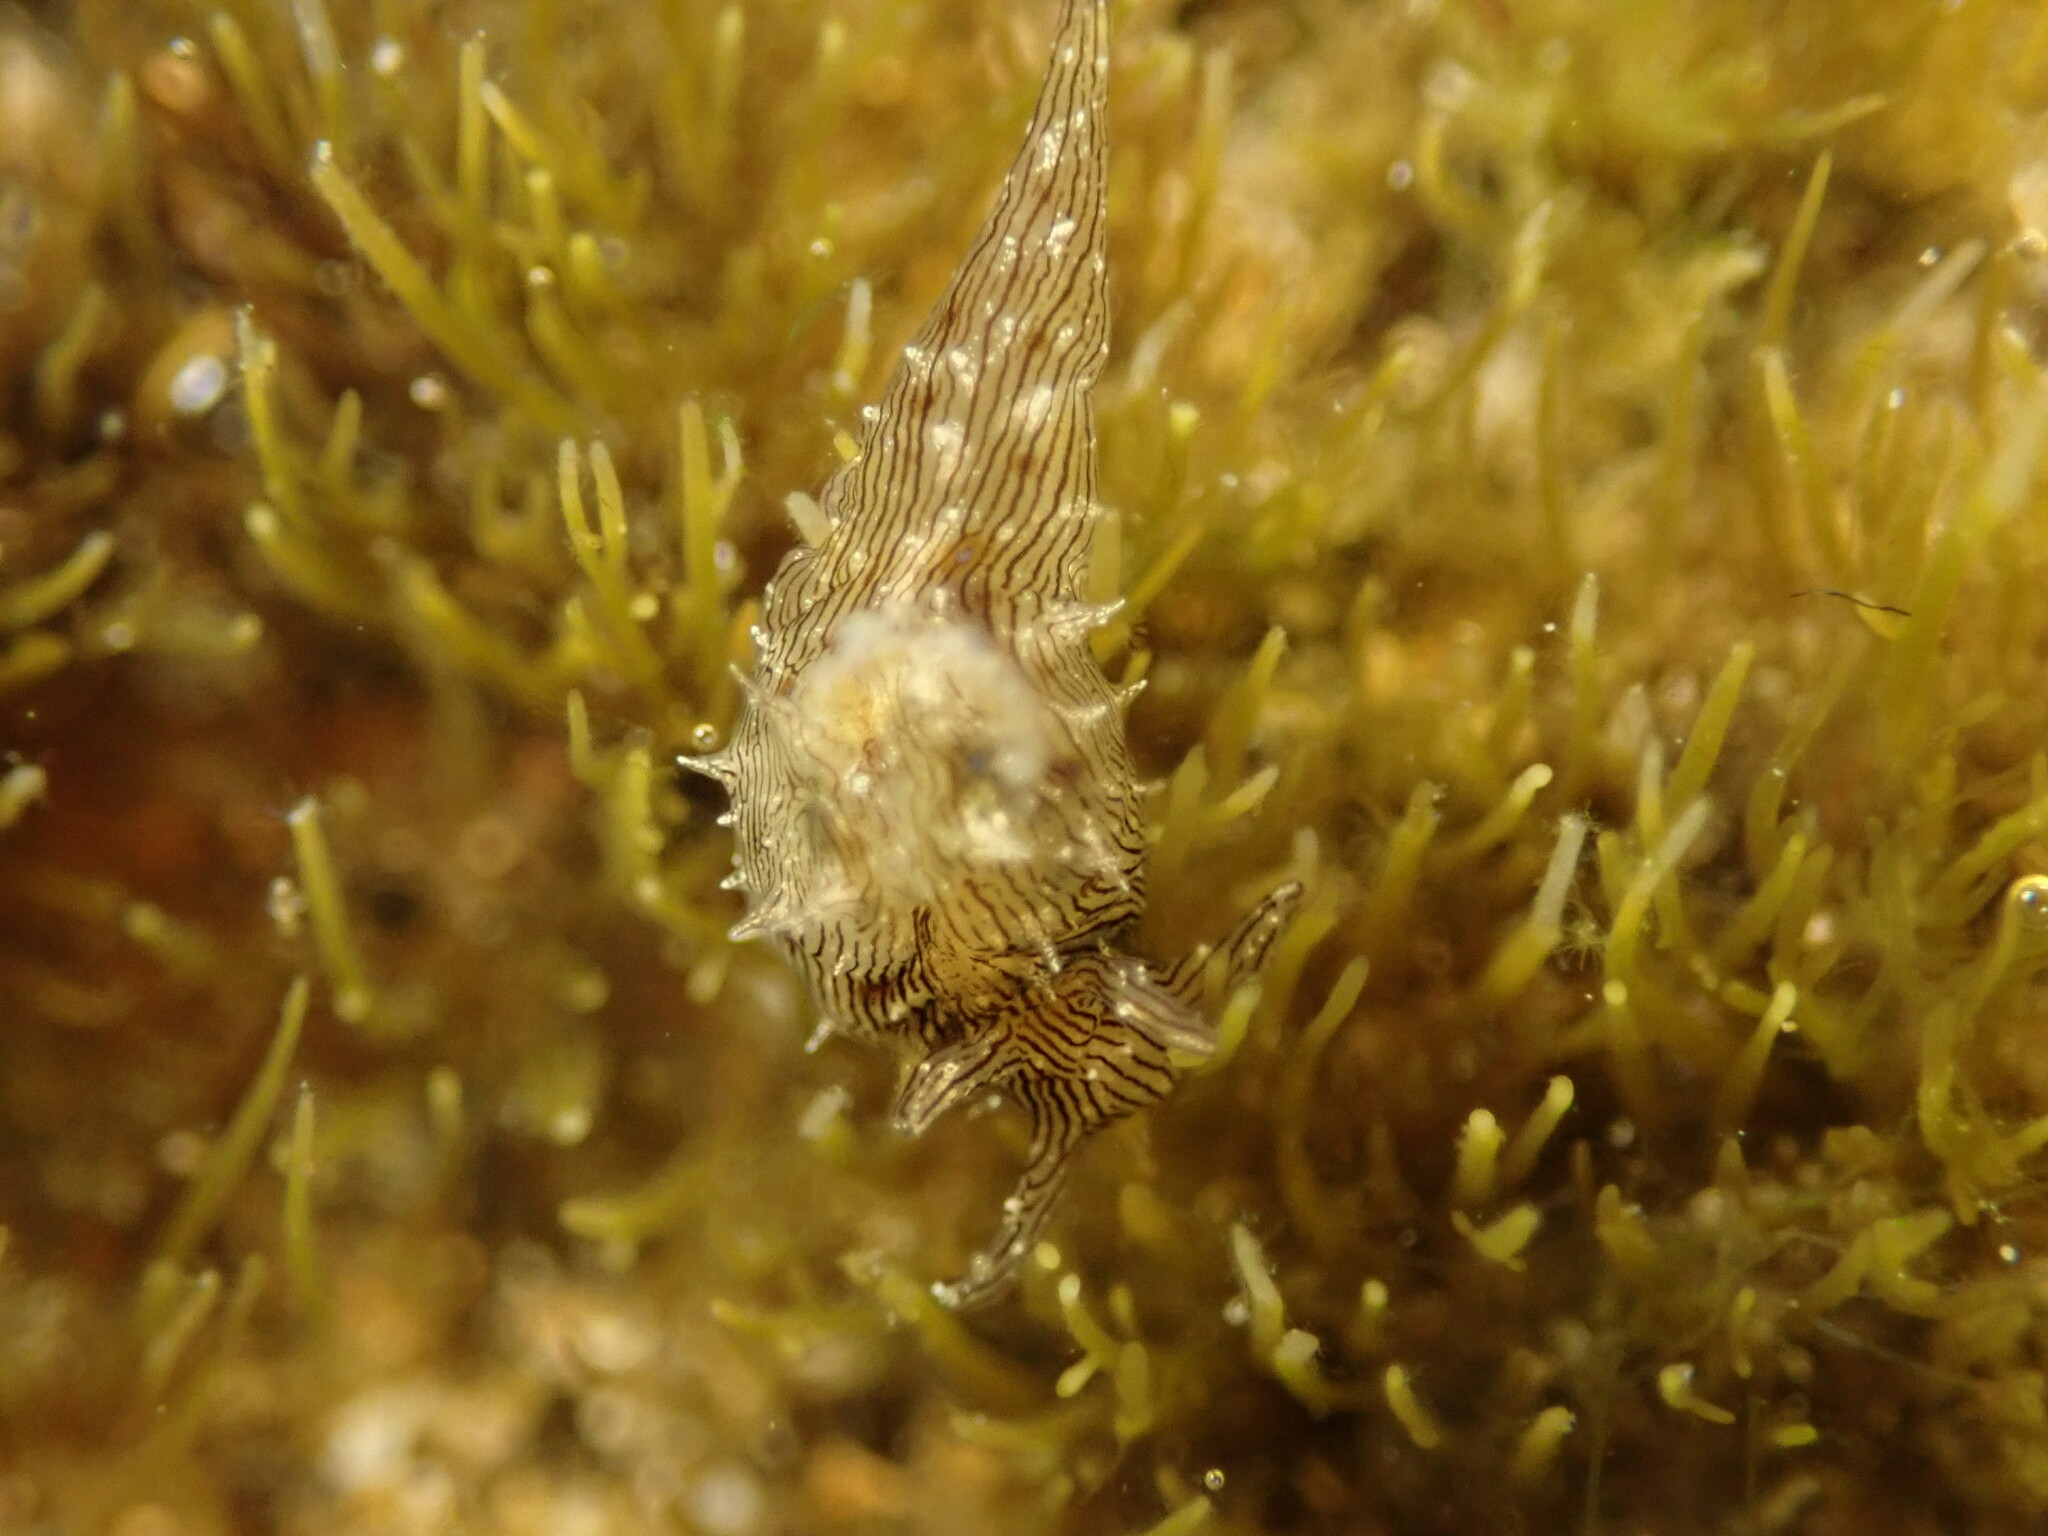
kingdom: Animalia
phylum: Mollusca
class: Gastropoda
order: Aplysiida
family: Aplysiidae
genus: Stylocheilus
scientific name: Stylocheilus striatus
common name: Striated seahare
